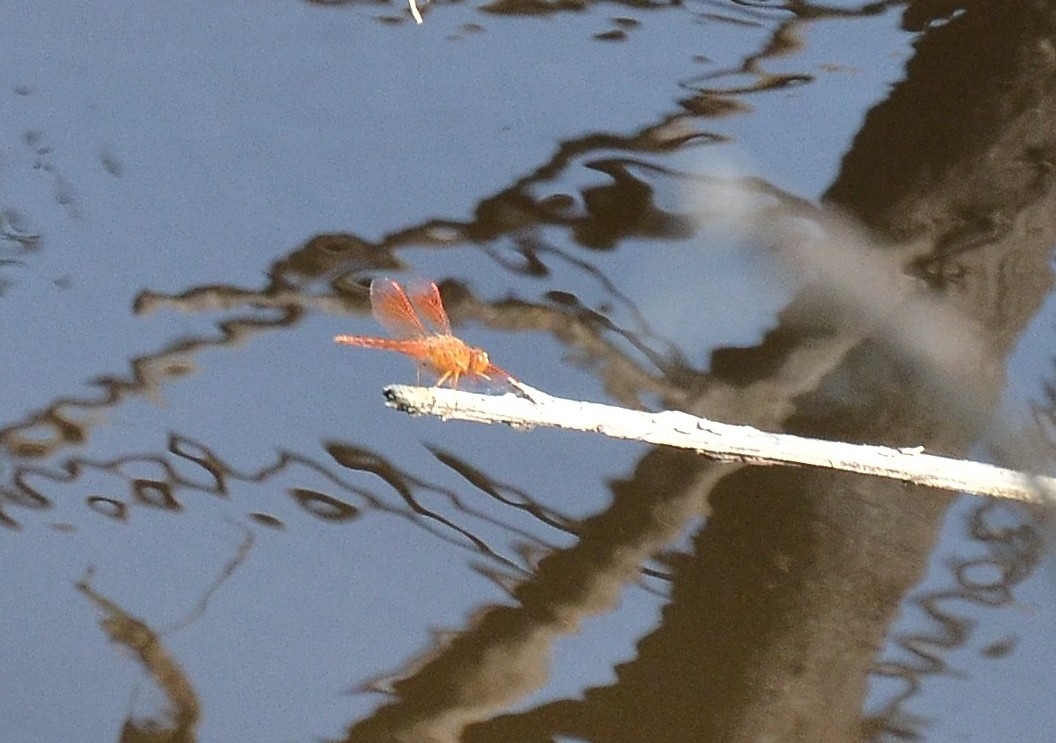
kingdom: Animalia
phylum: Arthropoda
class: Insecta
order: Odonata
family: Libellulidae
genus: Brachythemis
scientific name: Brachythemis contaminata
